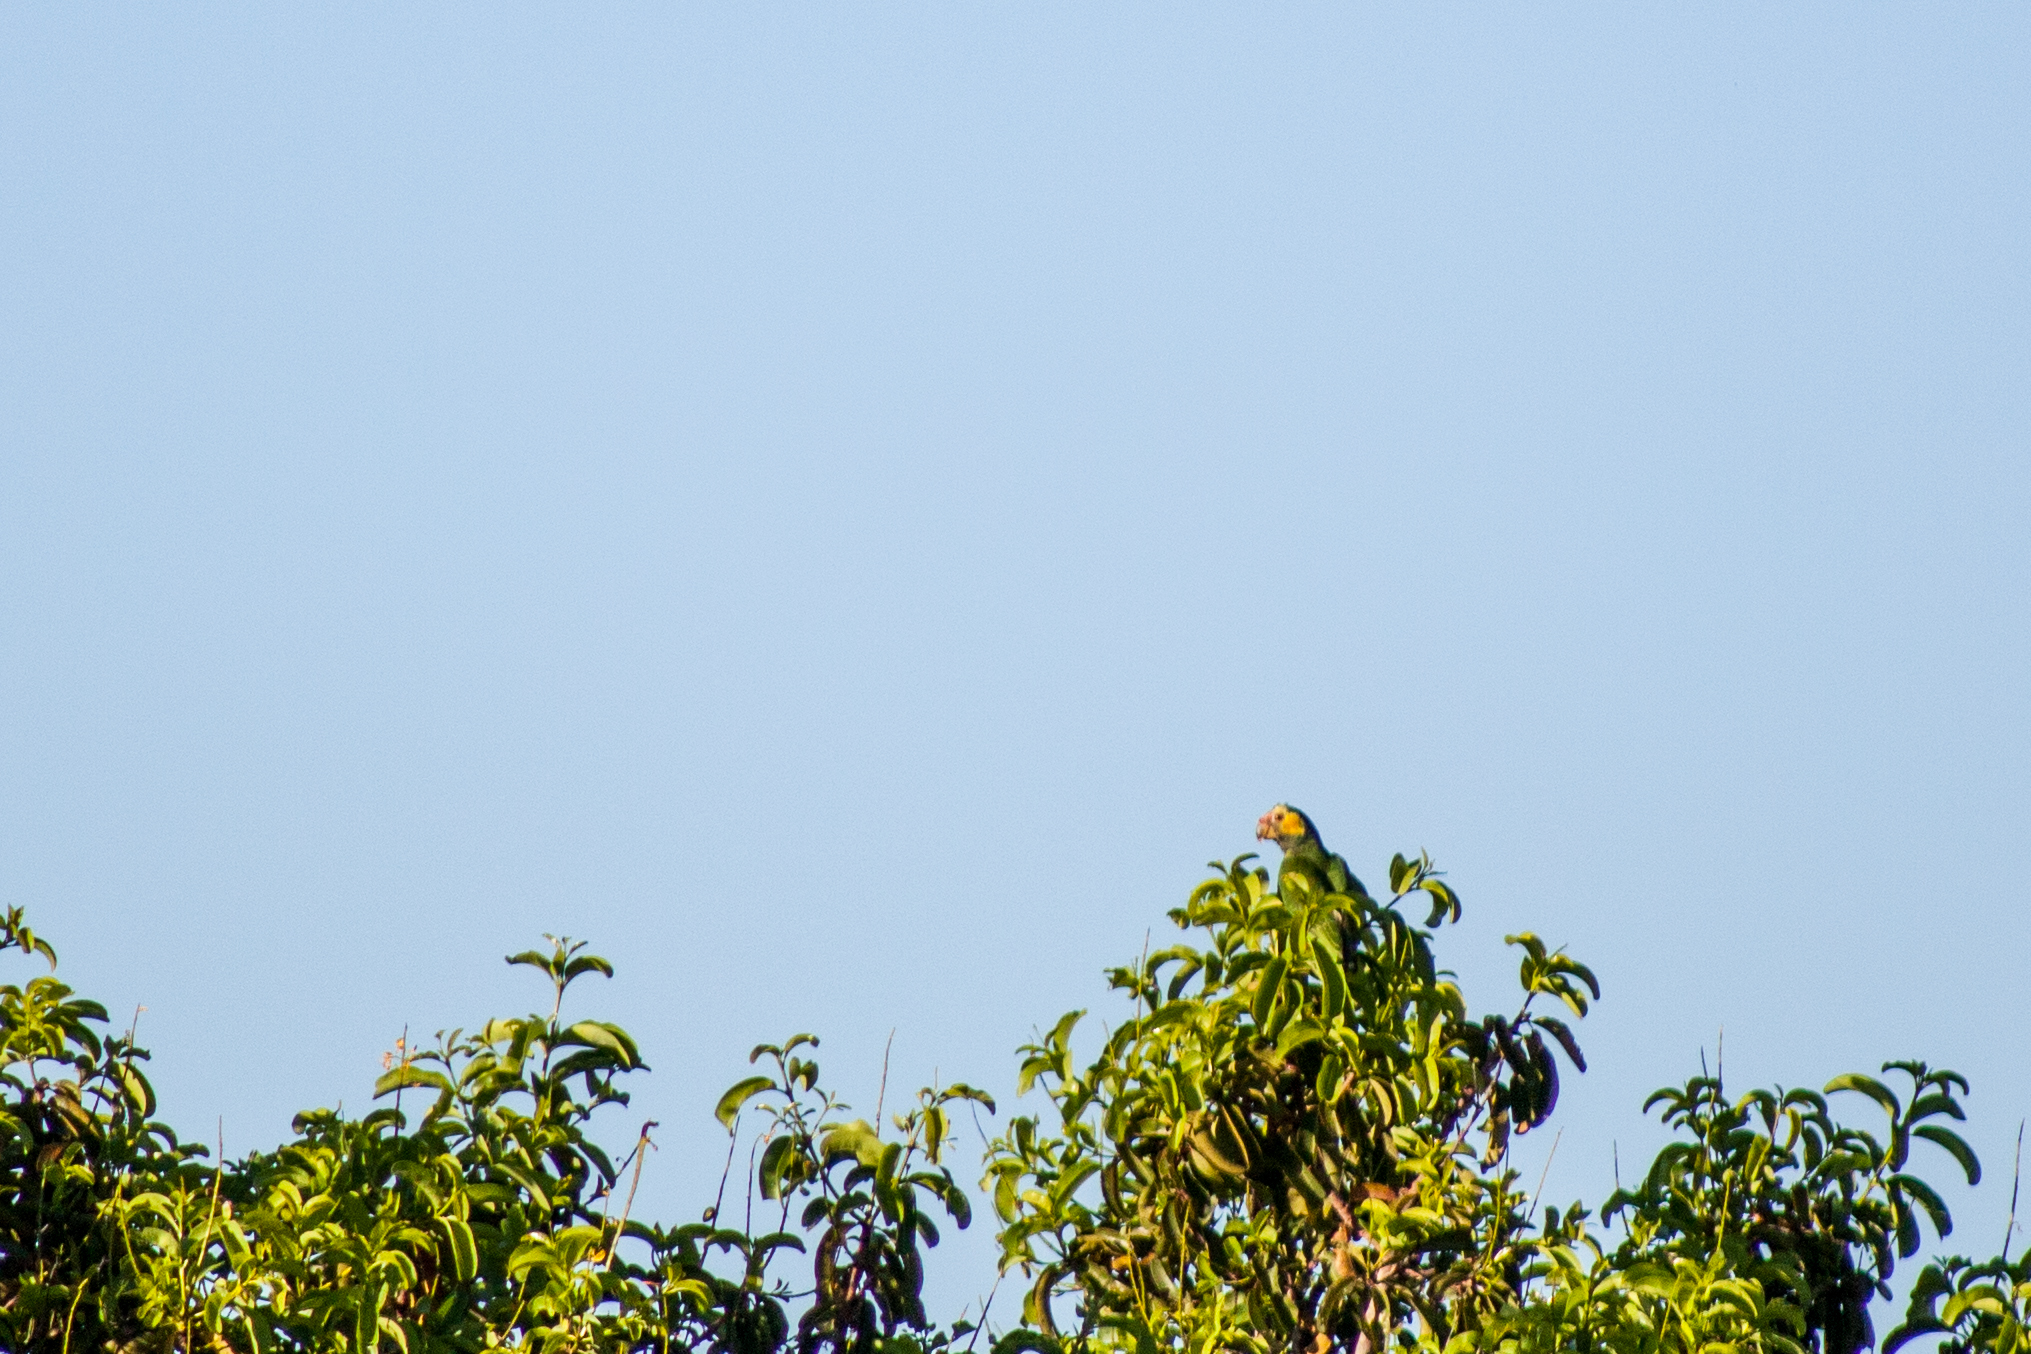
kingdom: Animalia
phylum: Chordata
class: Aves
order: Psittaciformes
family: Psittacidae
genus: Amazona
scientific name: Amazona xanthops
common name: Yellow-faced amazon
